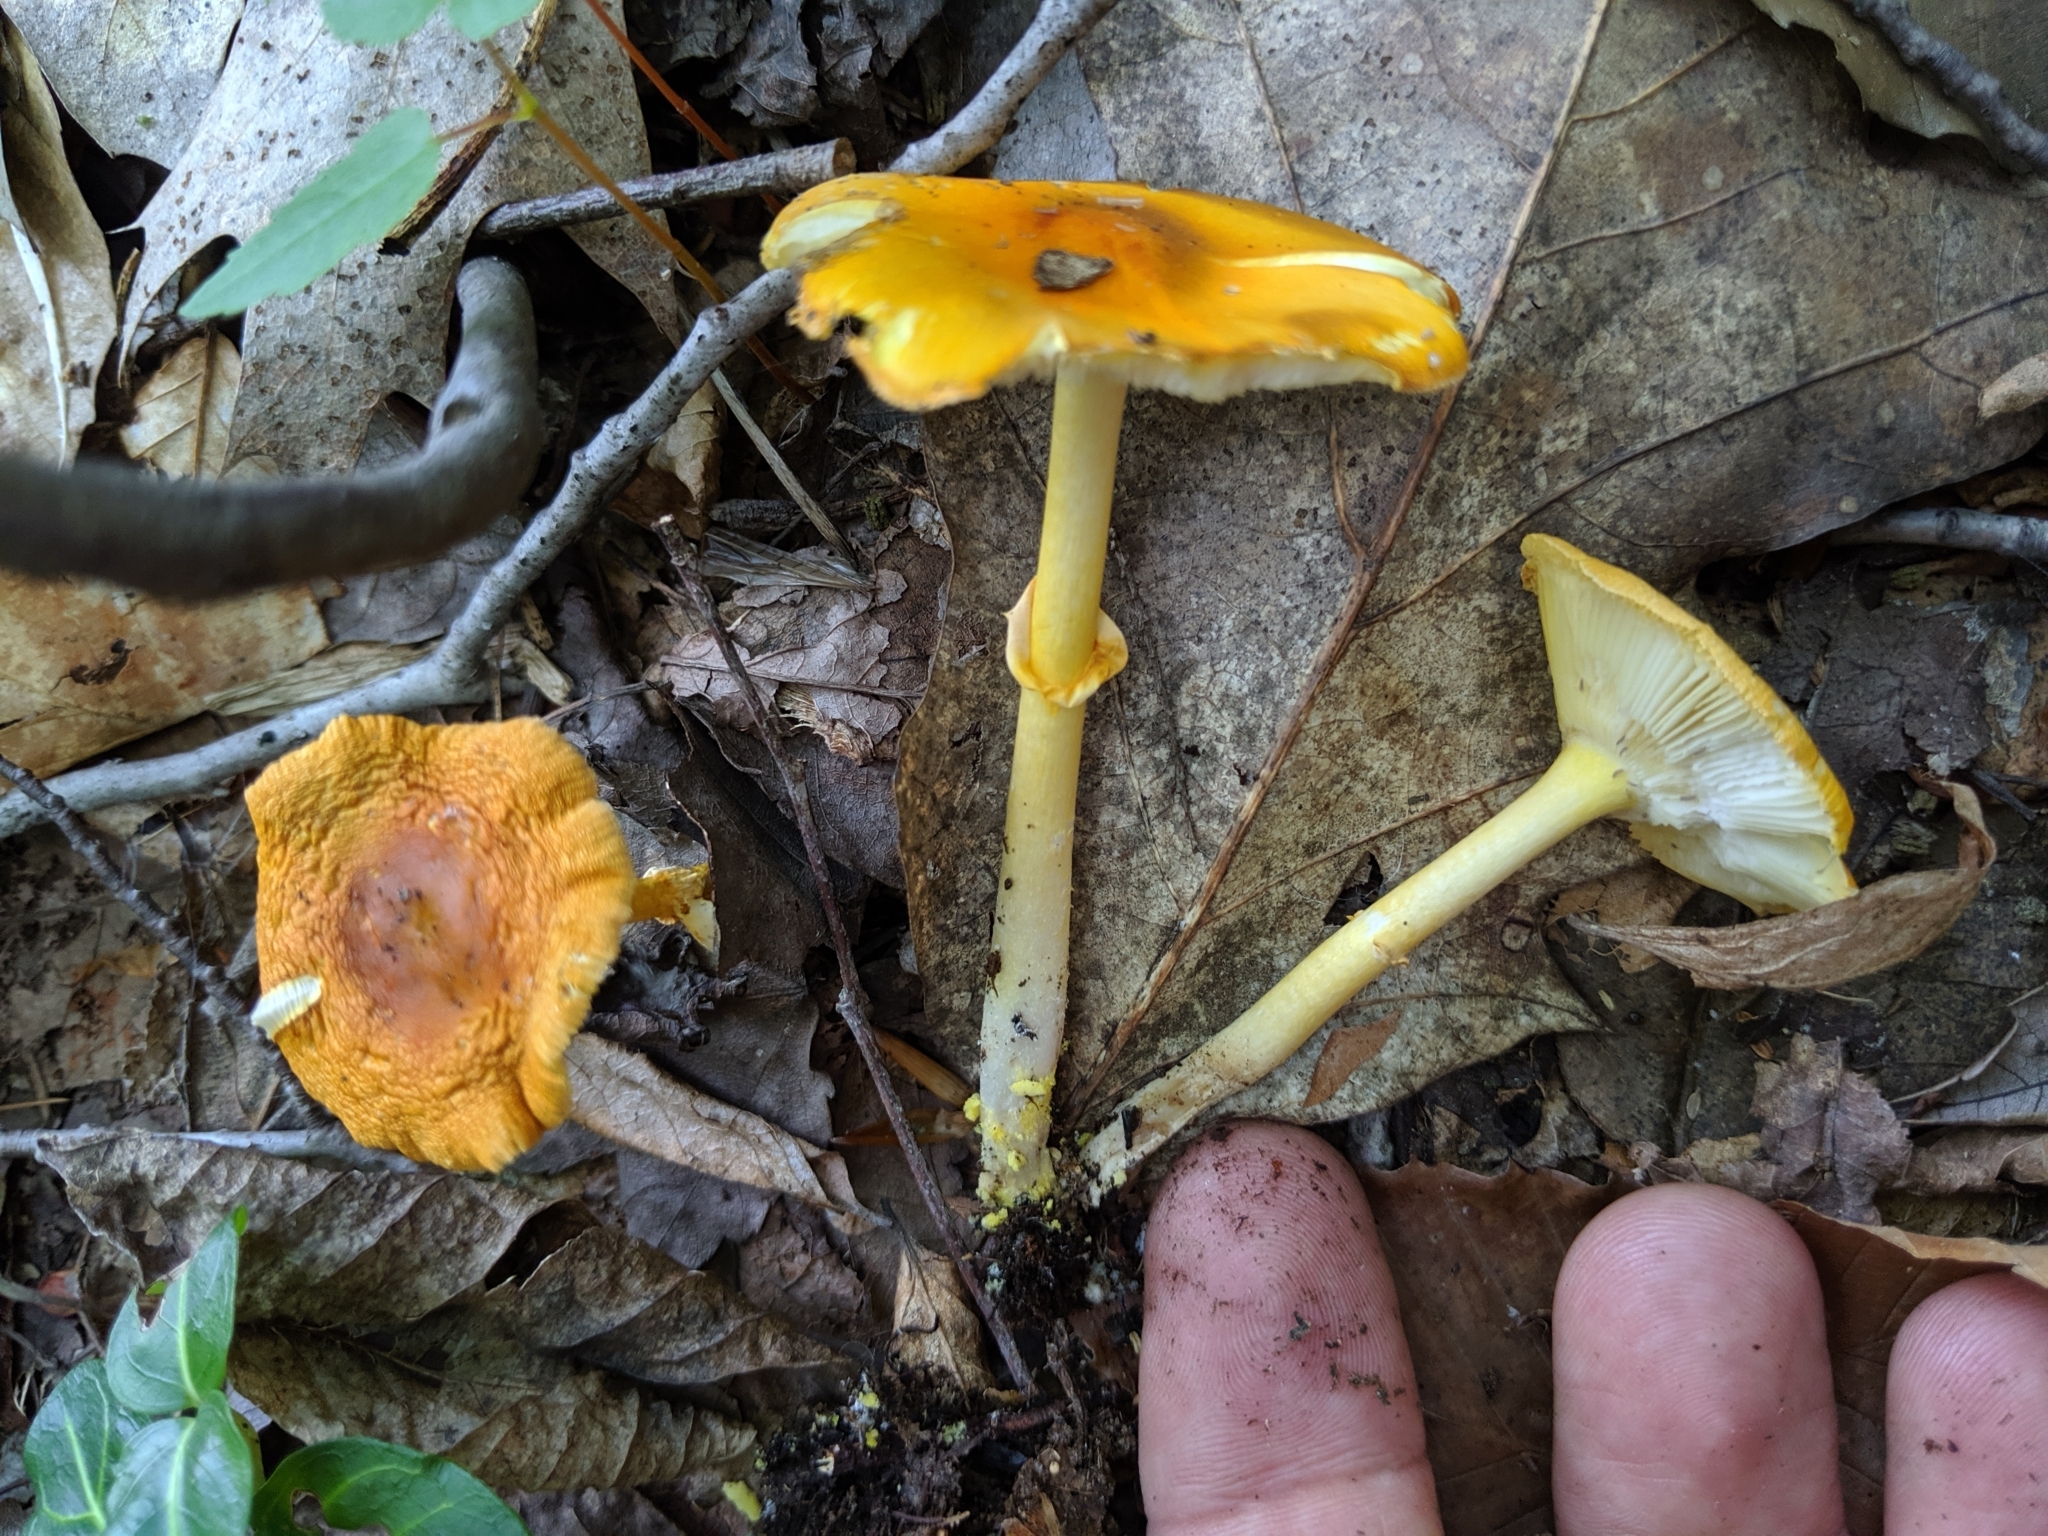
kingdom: Fungi
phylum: Basidiomycota
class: Agaricomycetes
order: Agaricales
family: Amanitaceae
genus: Amanita
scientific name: Amanita flavoconia
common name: Yellow patches
